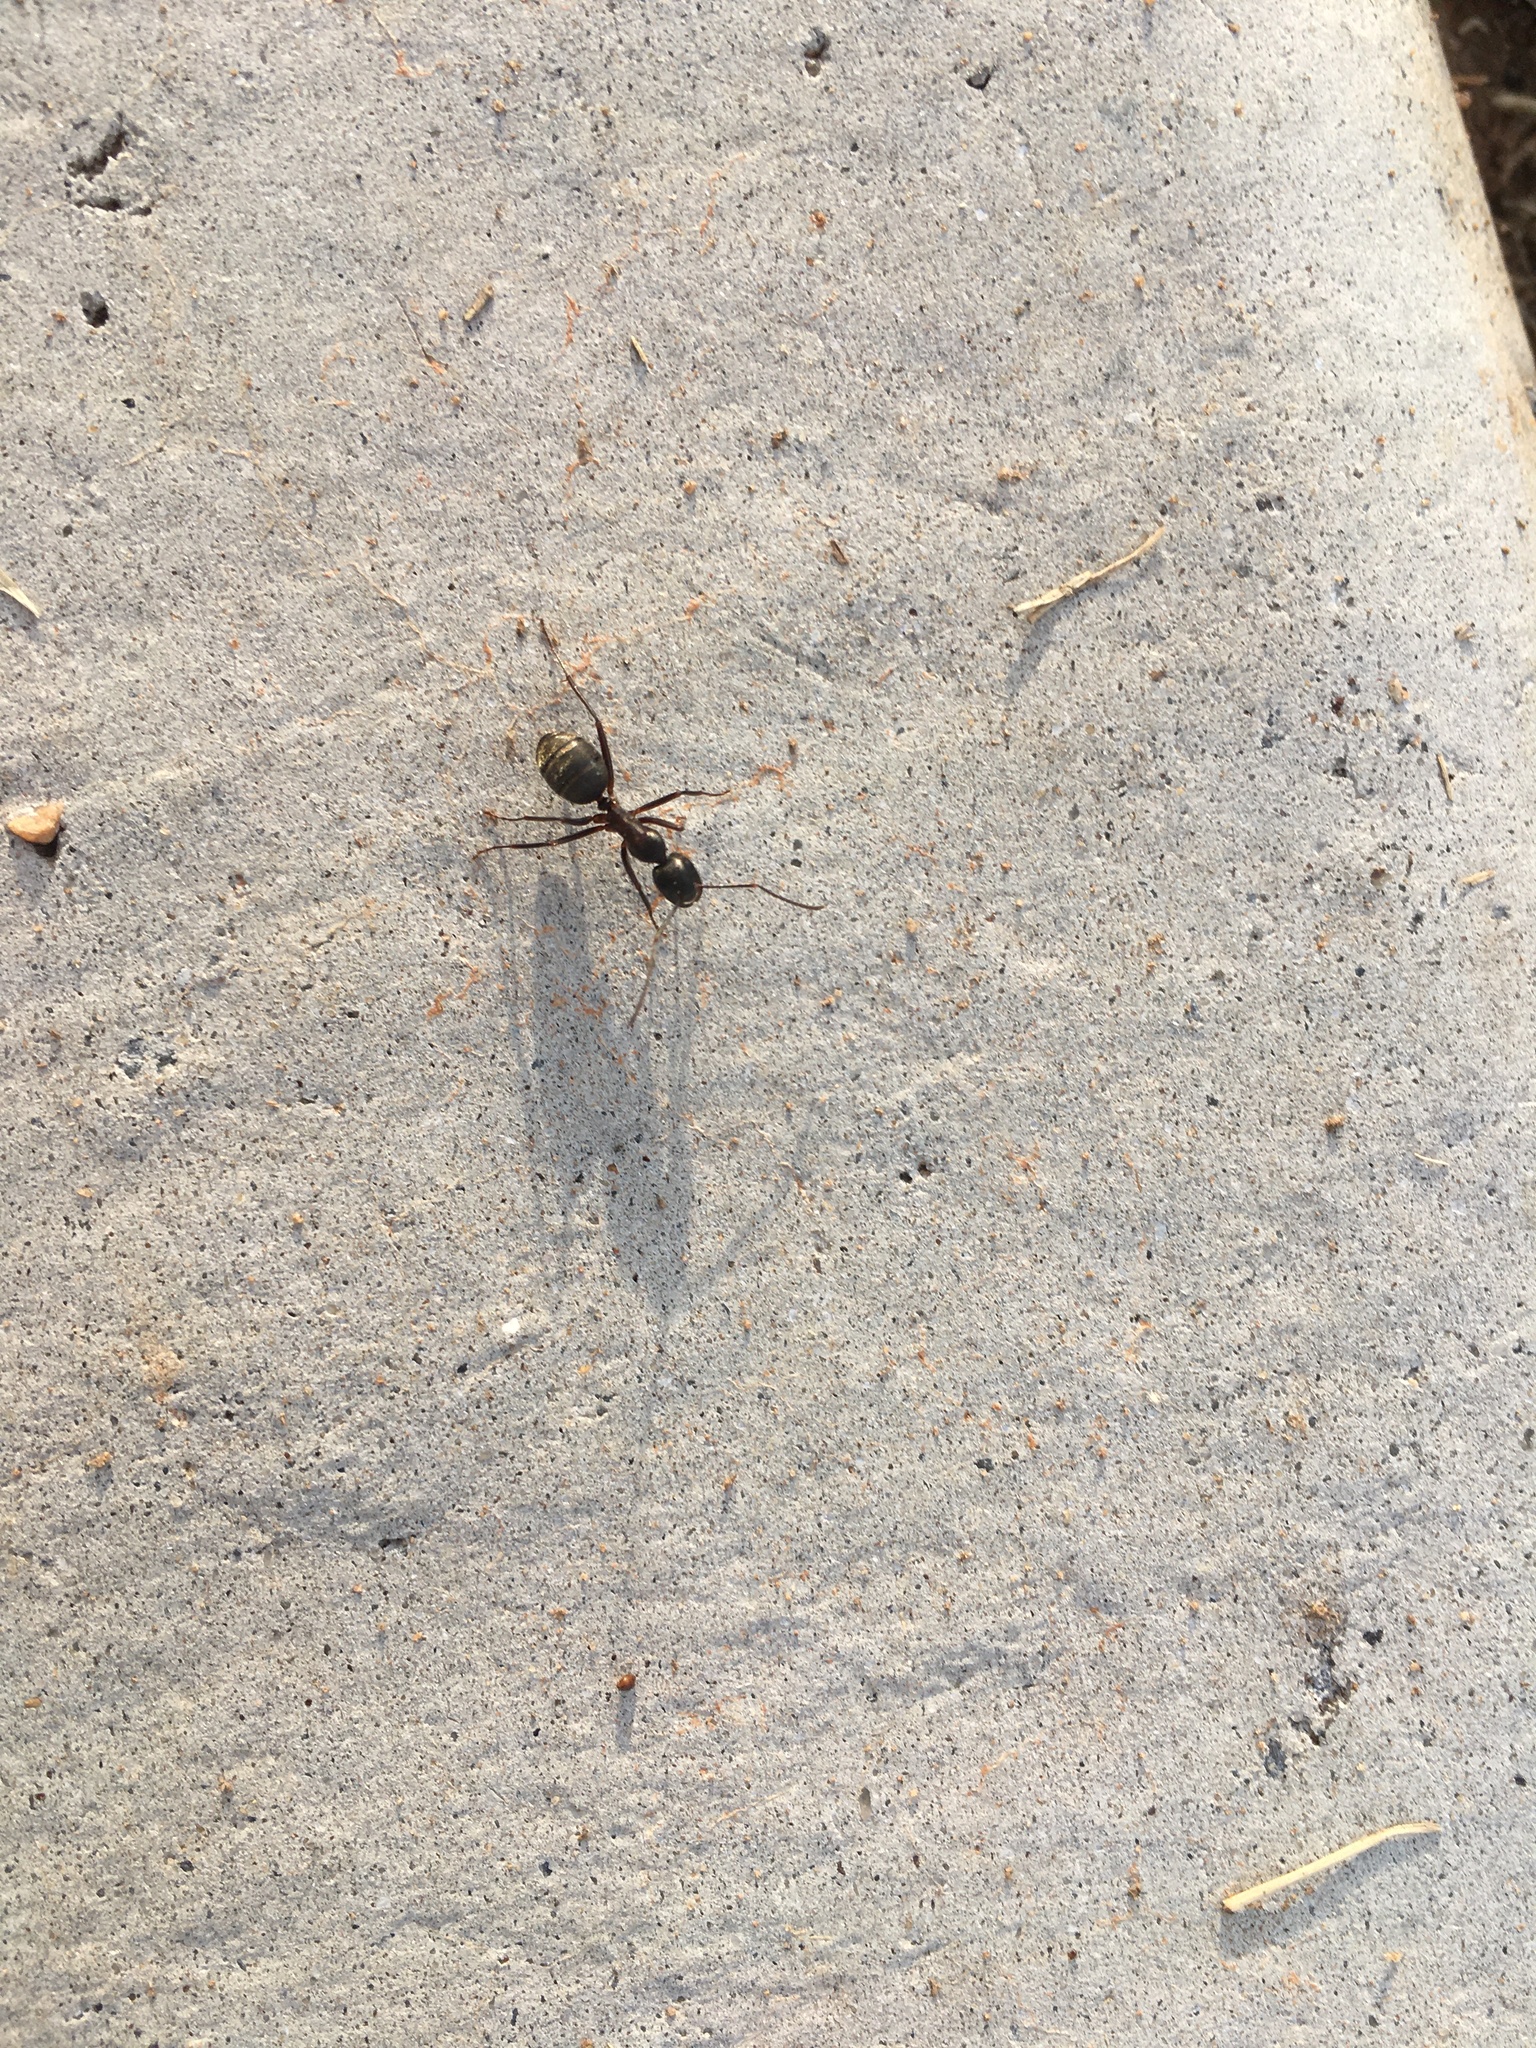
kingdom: Animalia
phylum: Arthropoda
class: Insecta
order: Hymenoptera
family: Formicidae
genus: Camponotus
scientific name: Camponotus chromaiodes
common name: Red carpenter ant
